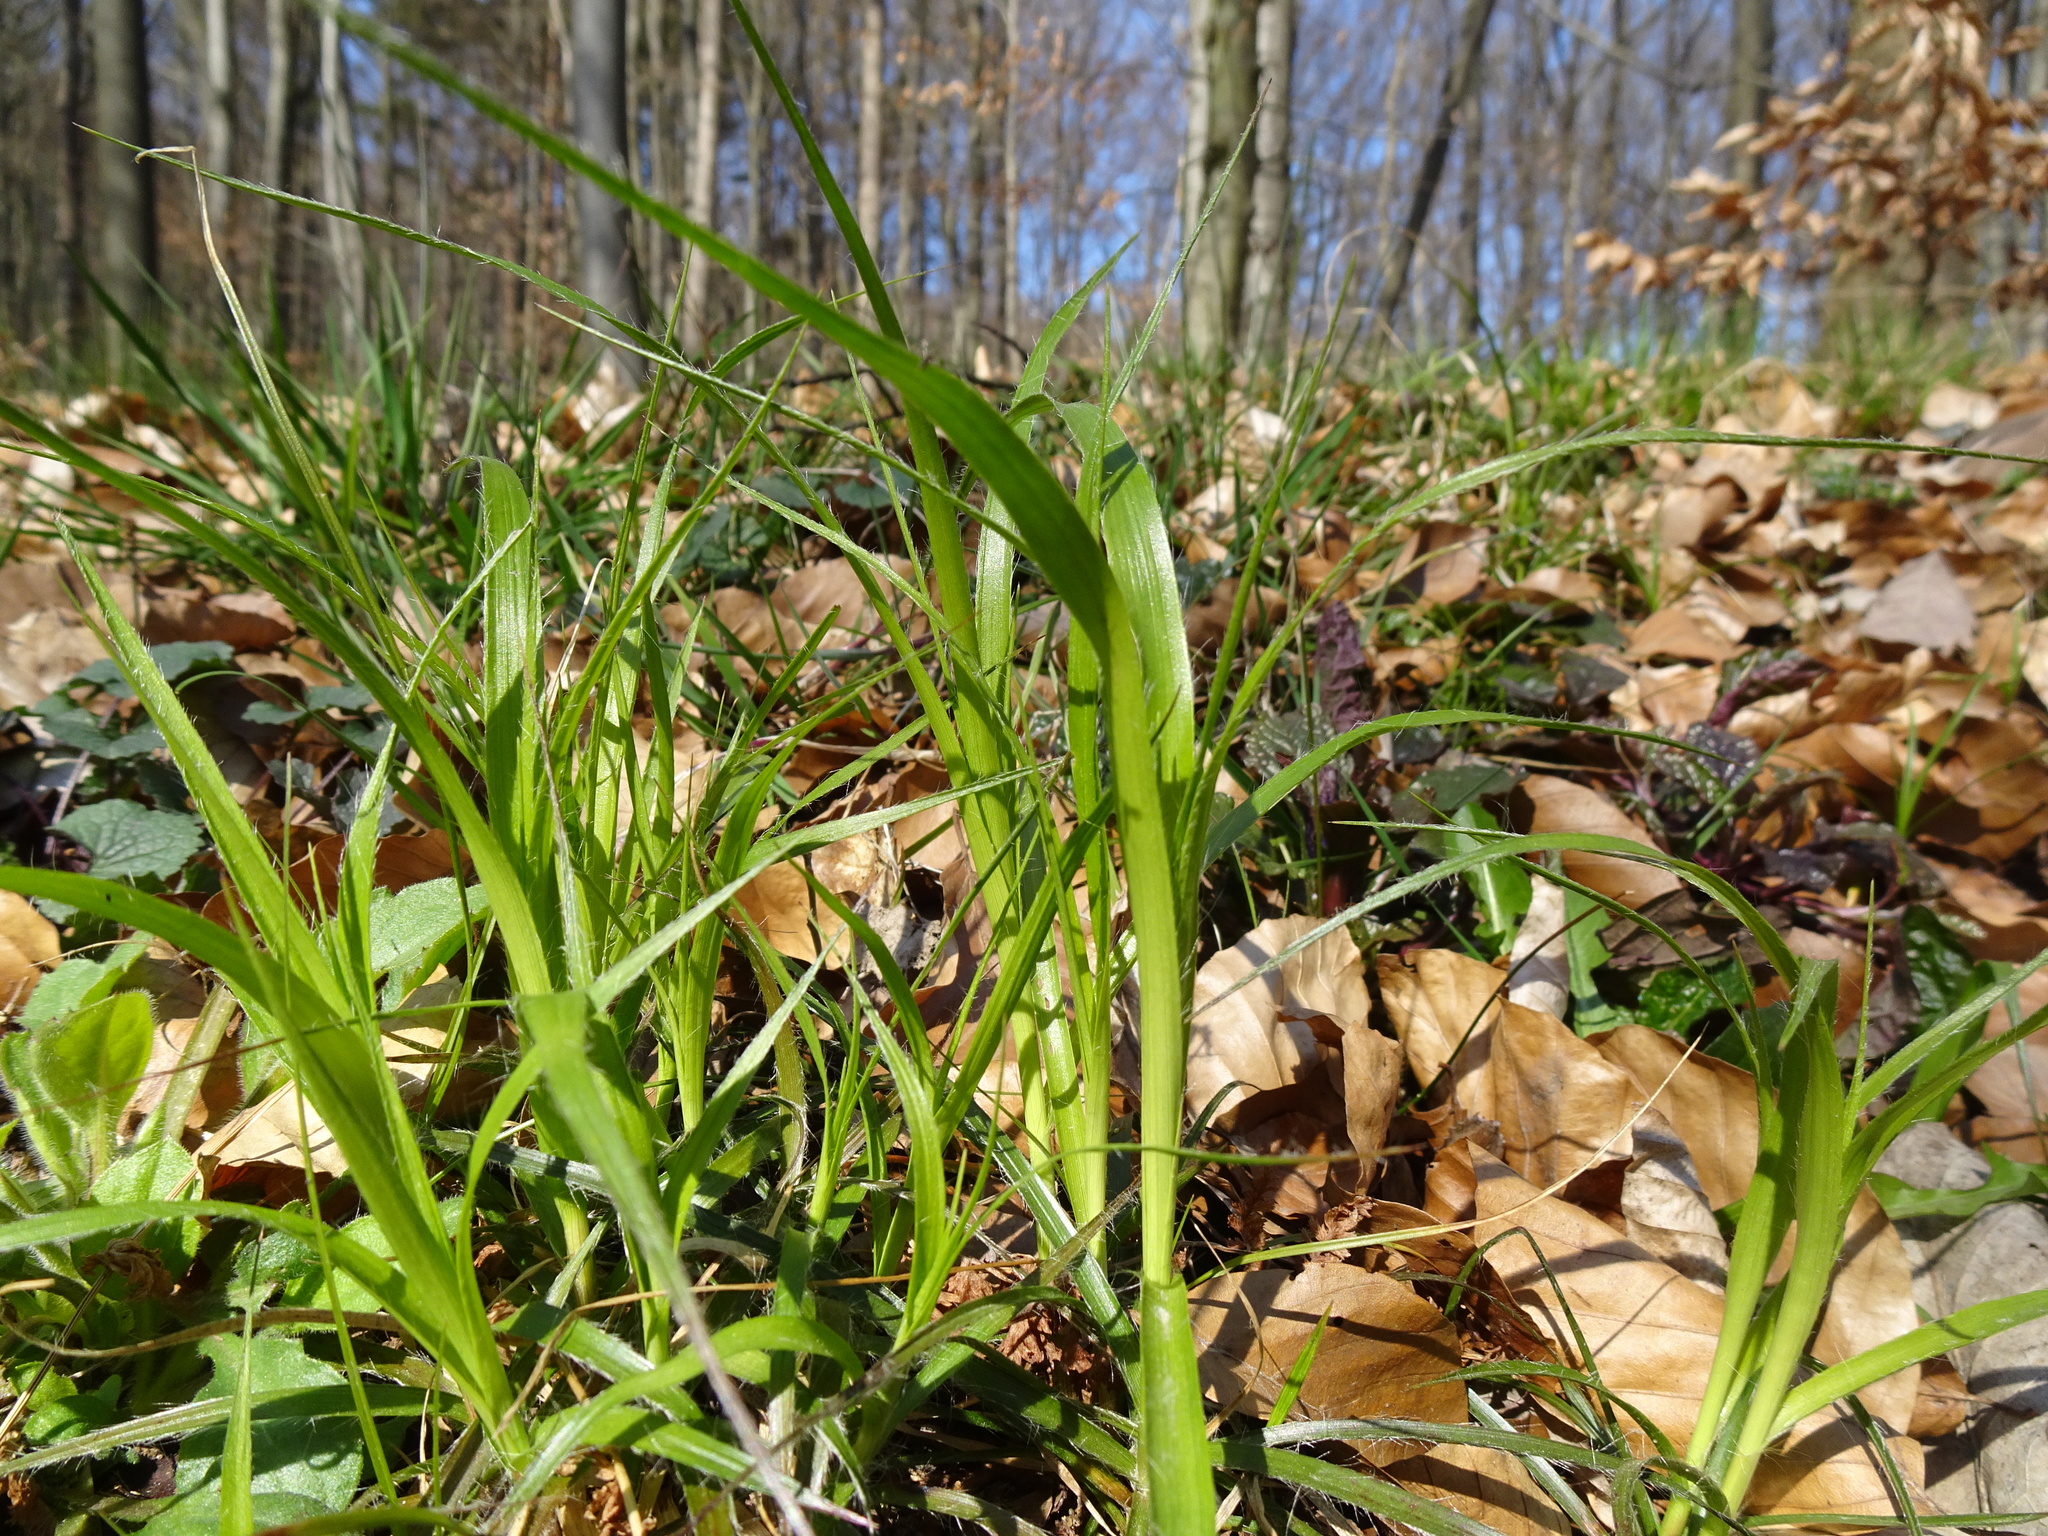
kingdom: Plantae
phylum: Tracheophyta
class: Liliopsida
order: Poales
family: Juncaceae
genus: Luzula
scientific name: Luzula pilosa
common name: Hairy wood-rush
